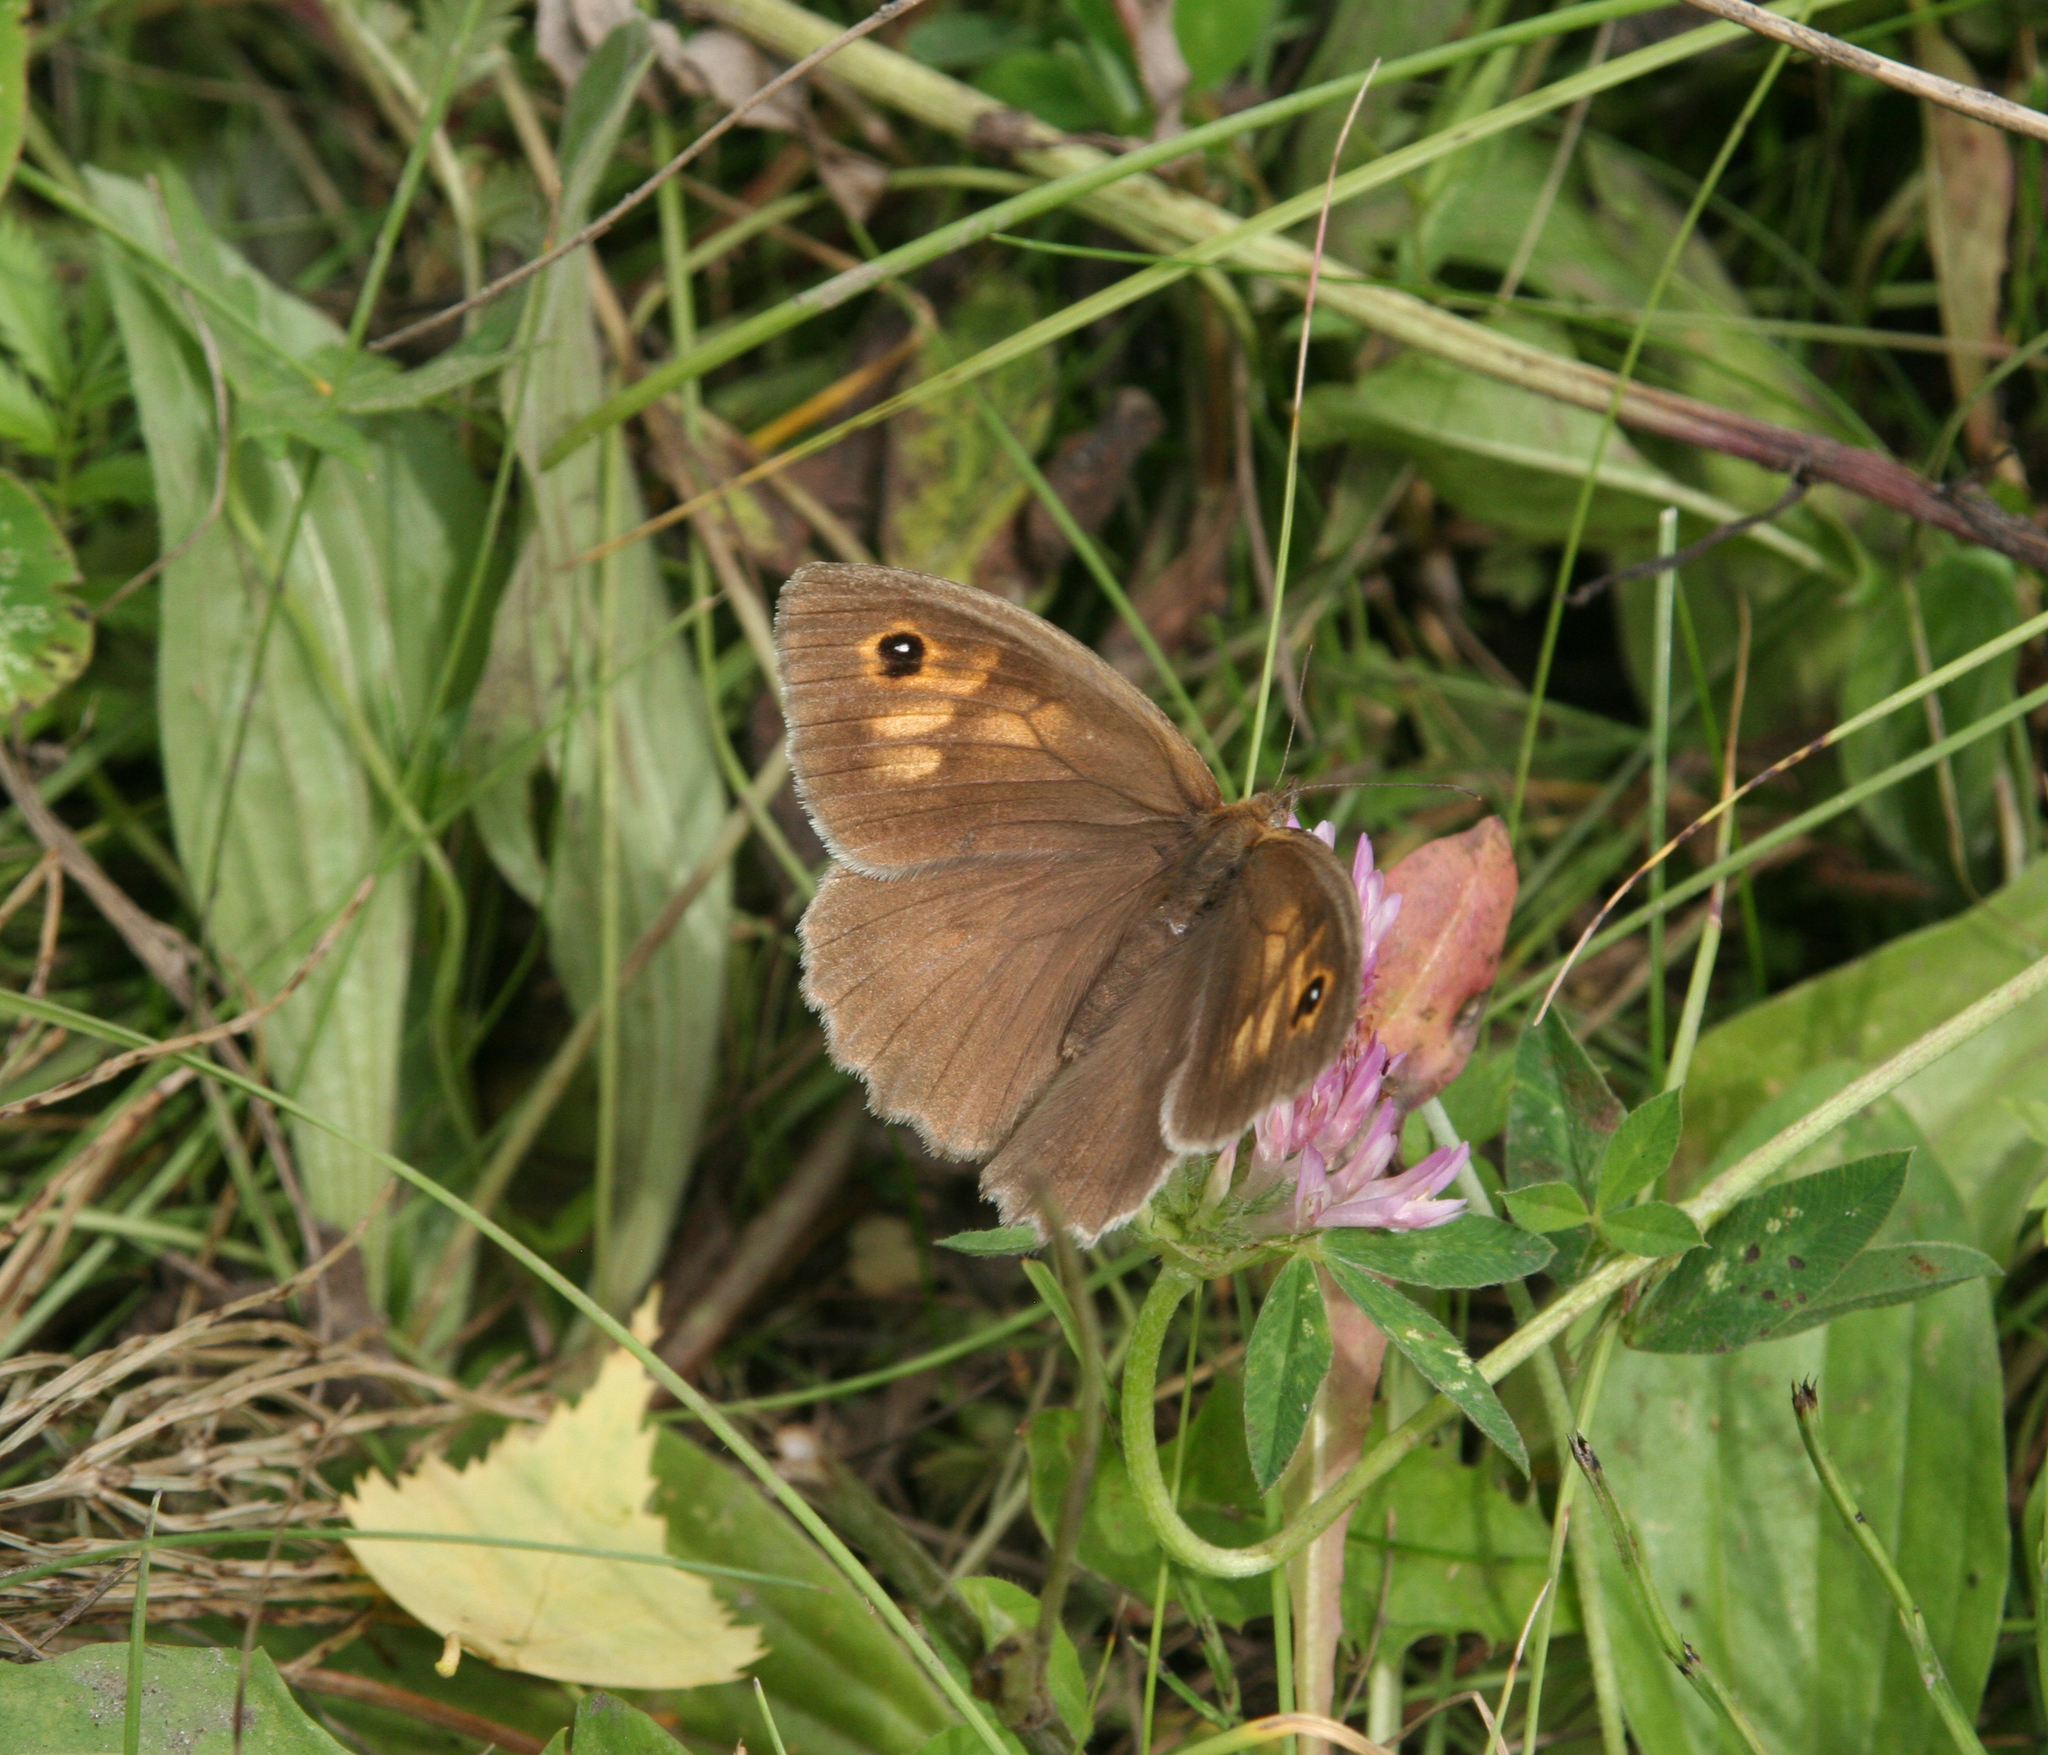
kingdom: Animalia
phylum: Arthropoda
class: Insecta
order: Lepidoptera
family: Nymphalidae
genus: Maniola
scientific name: Maniola jurtina
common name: Meadow brown
